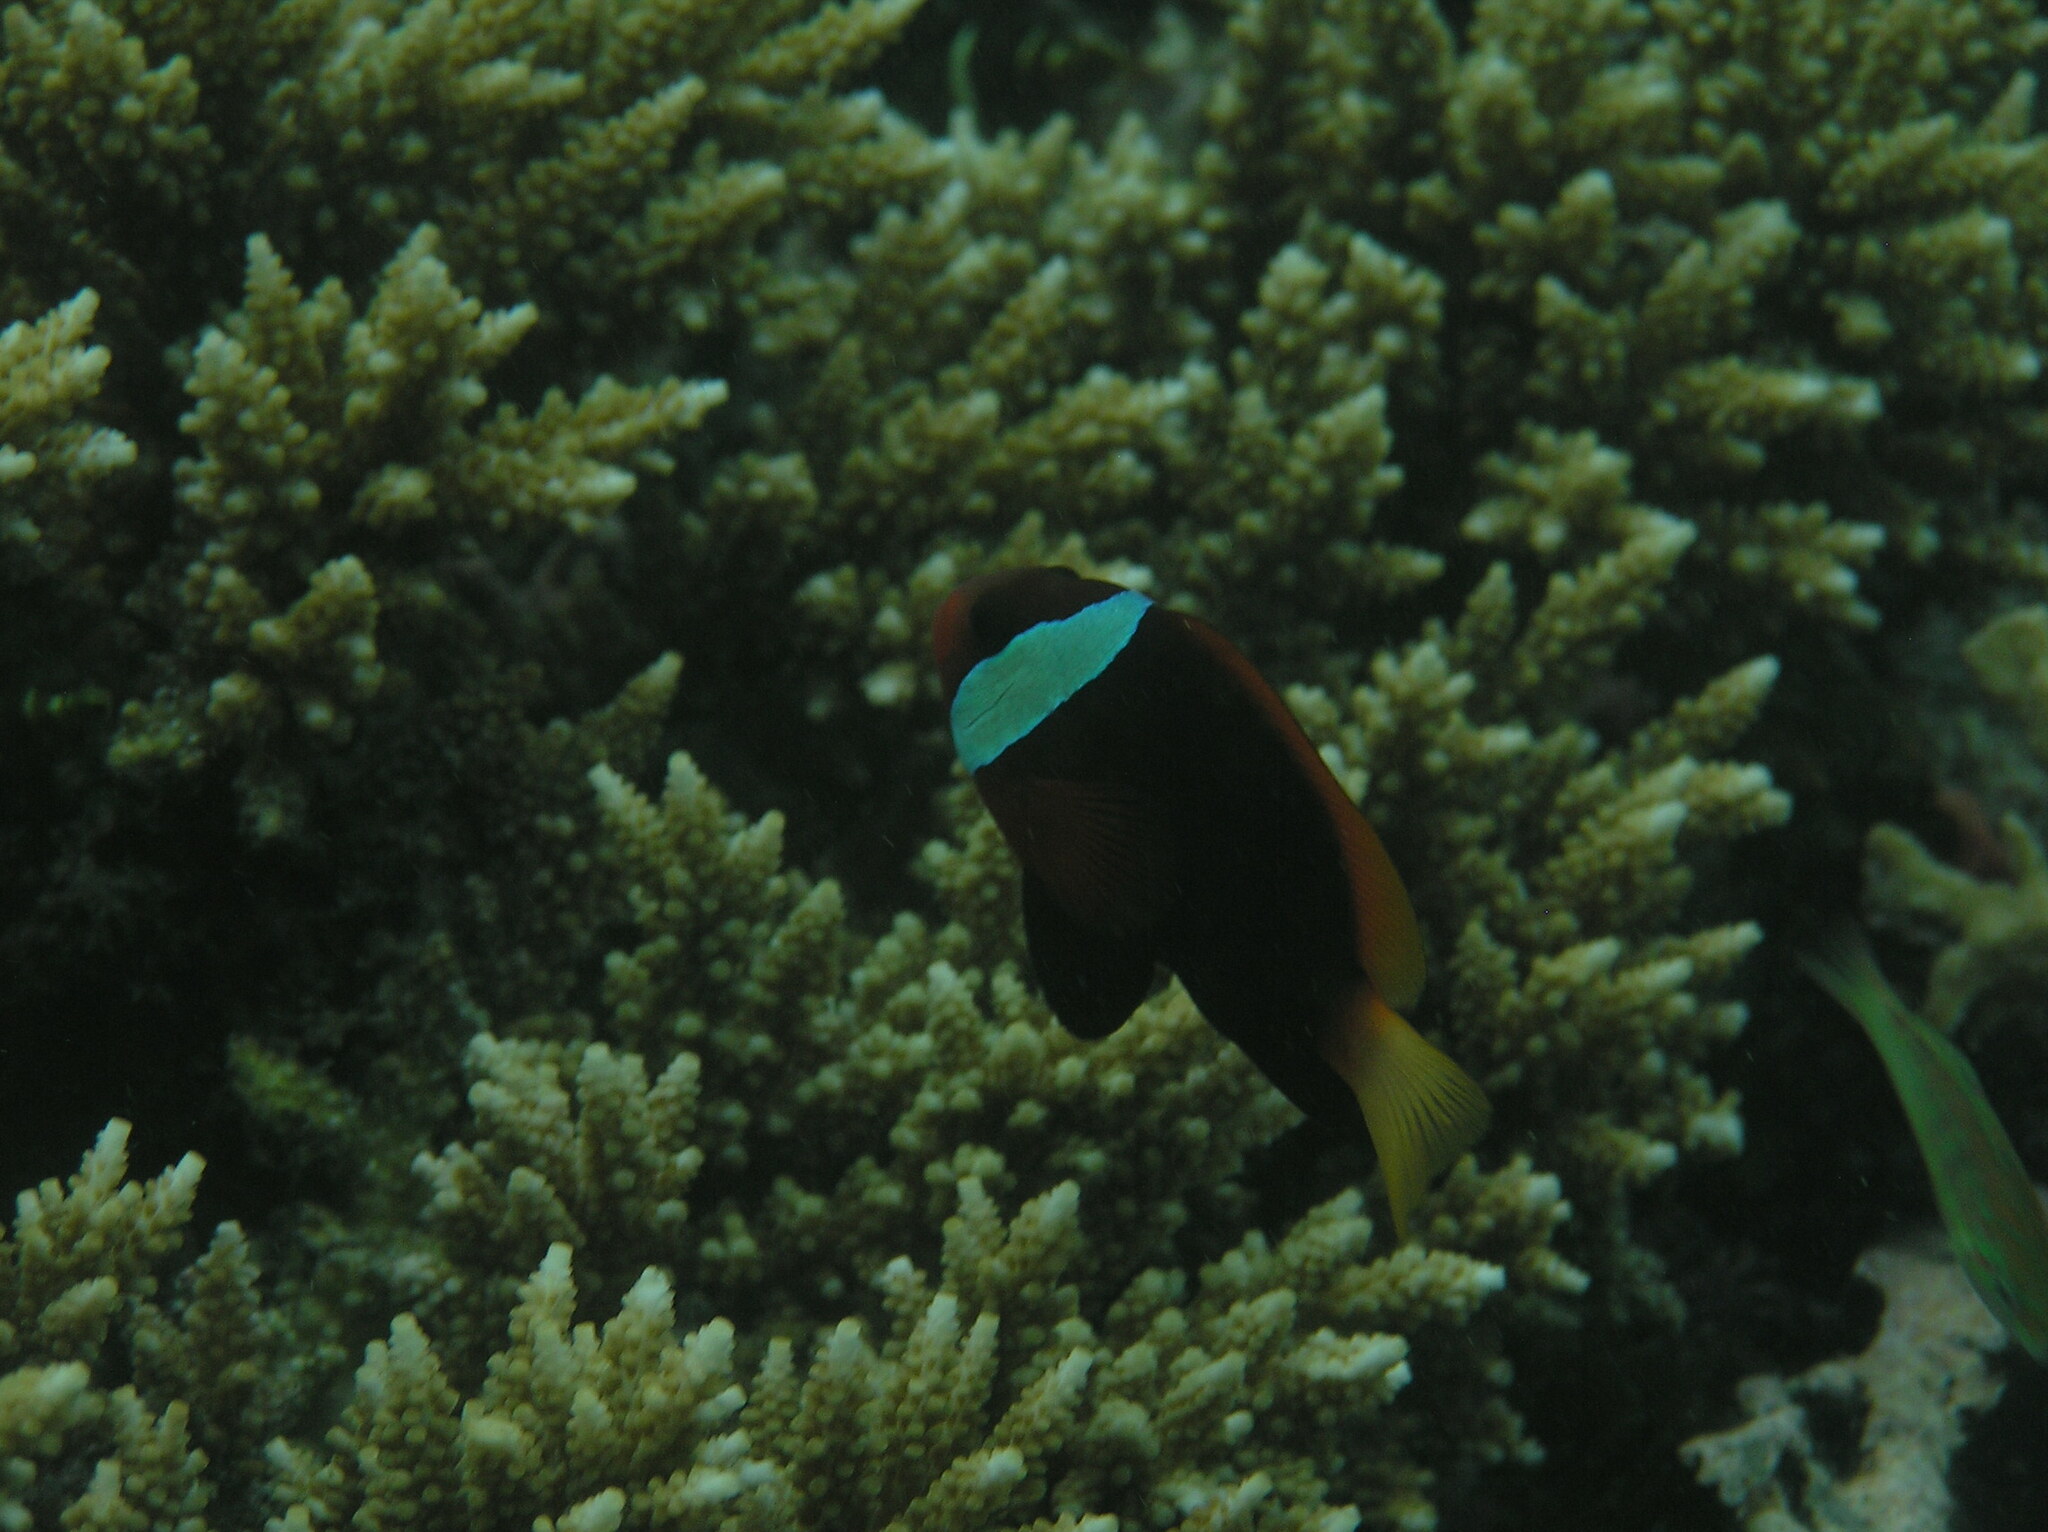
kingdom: Animalia
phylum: Chordata
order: Perciformes
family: Pomacentridae
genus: Amphiprion
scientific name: Amphiprion melanopus
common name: Black anemonefish
